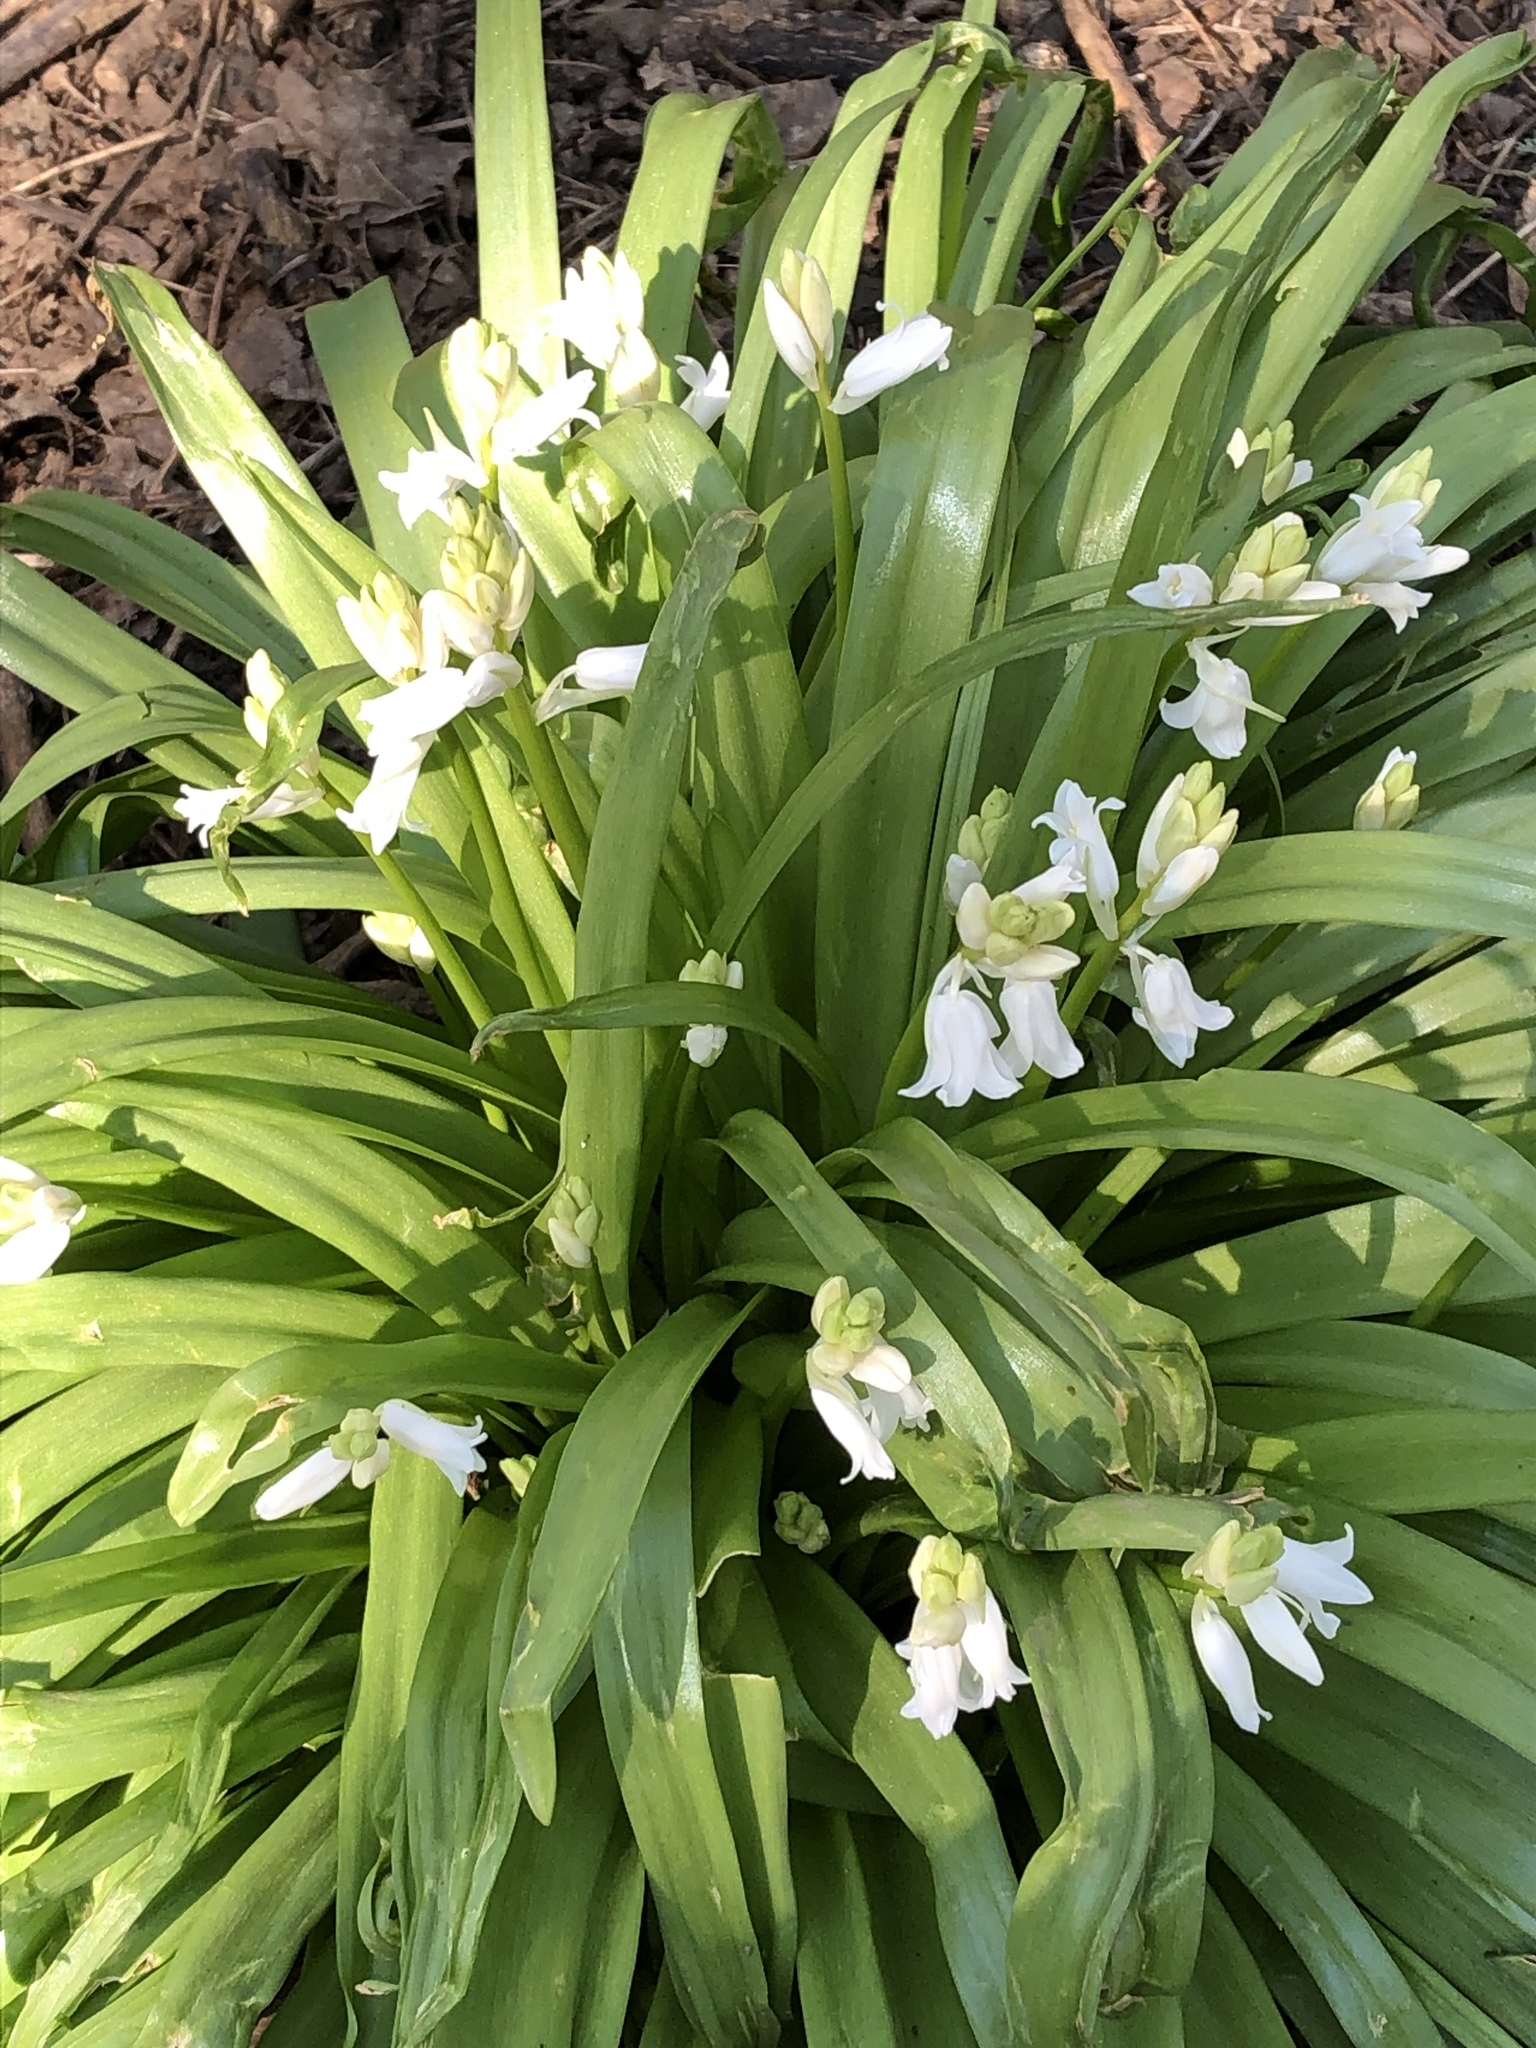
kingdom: Plantae
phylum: Tracheophyta
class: Liliopsida
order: Asparagales
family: Asparagaceae
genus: Hyacinthoides
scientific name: Hyacinthoides massartiana
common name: Hyacinthoides
